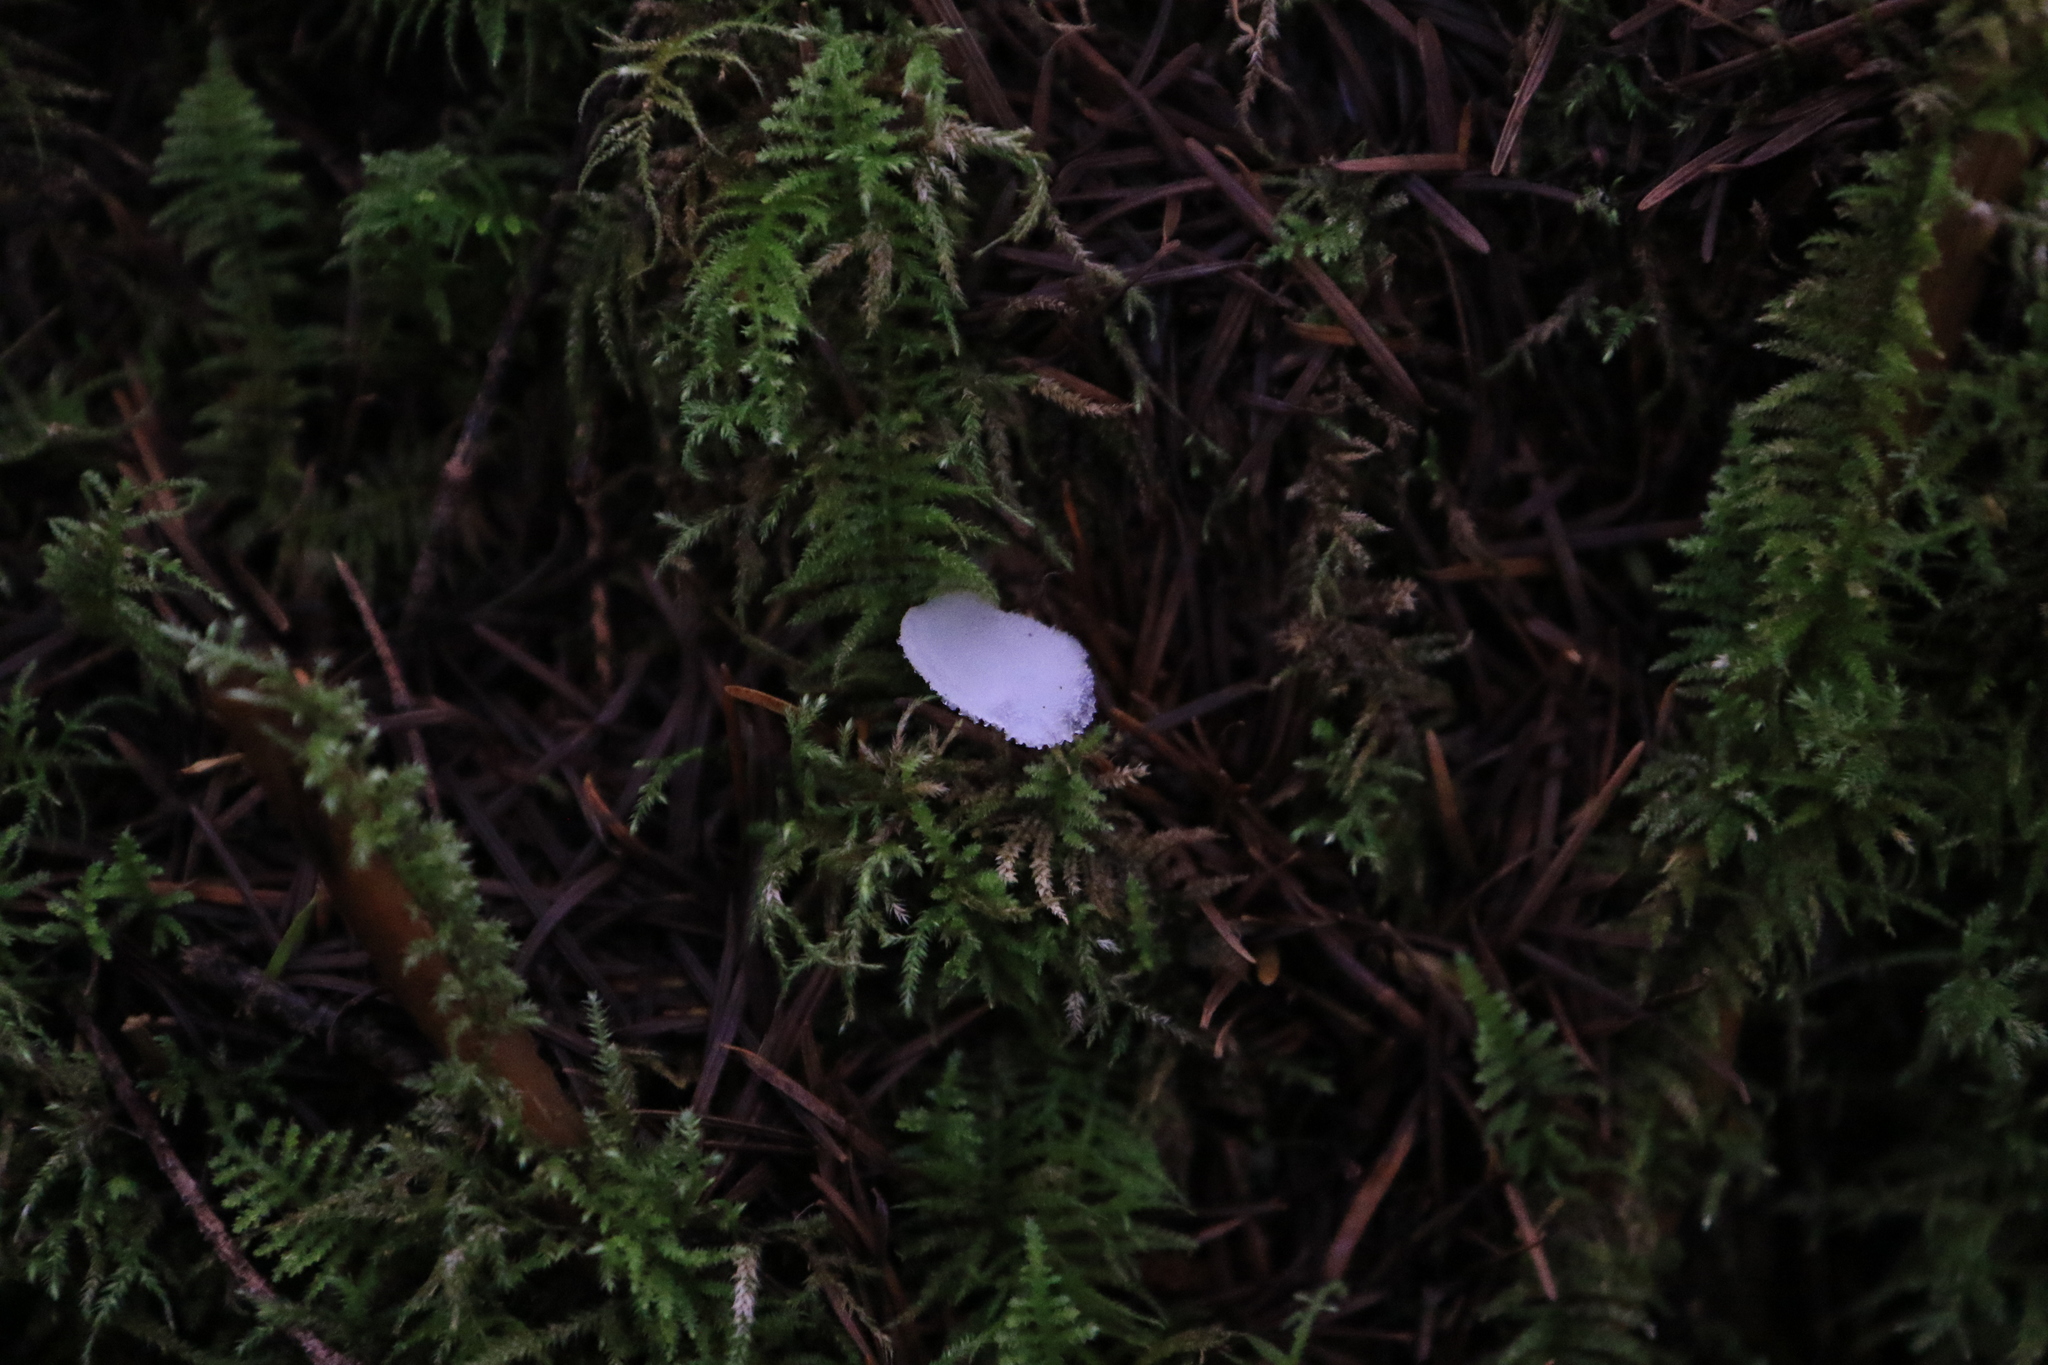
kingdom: Fungi
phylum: Basidiomycota
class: Agaricomycetes
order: Auriculariales
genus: Pseudohydnum
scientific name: Pseudohydnum gelatinosum
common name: Jelly tongue
